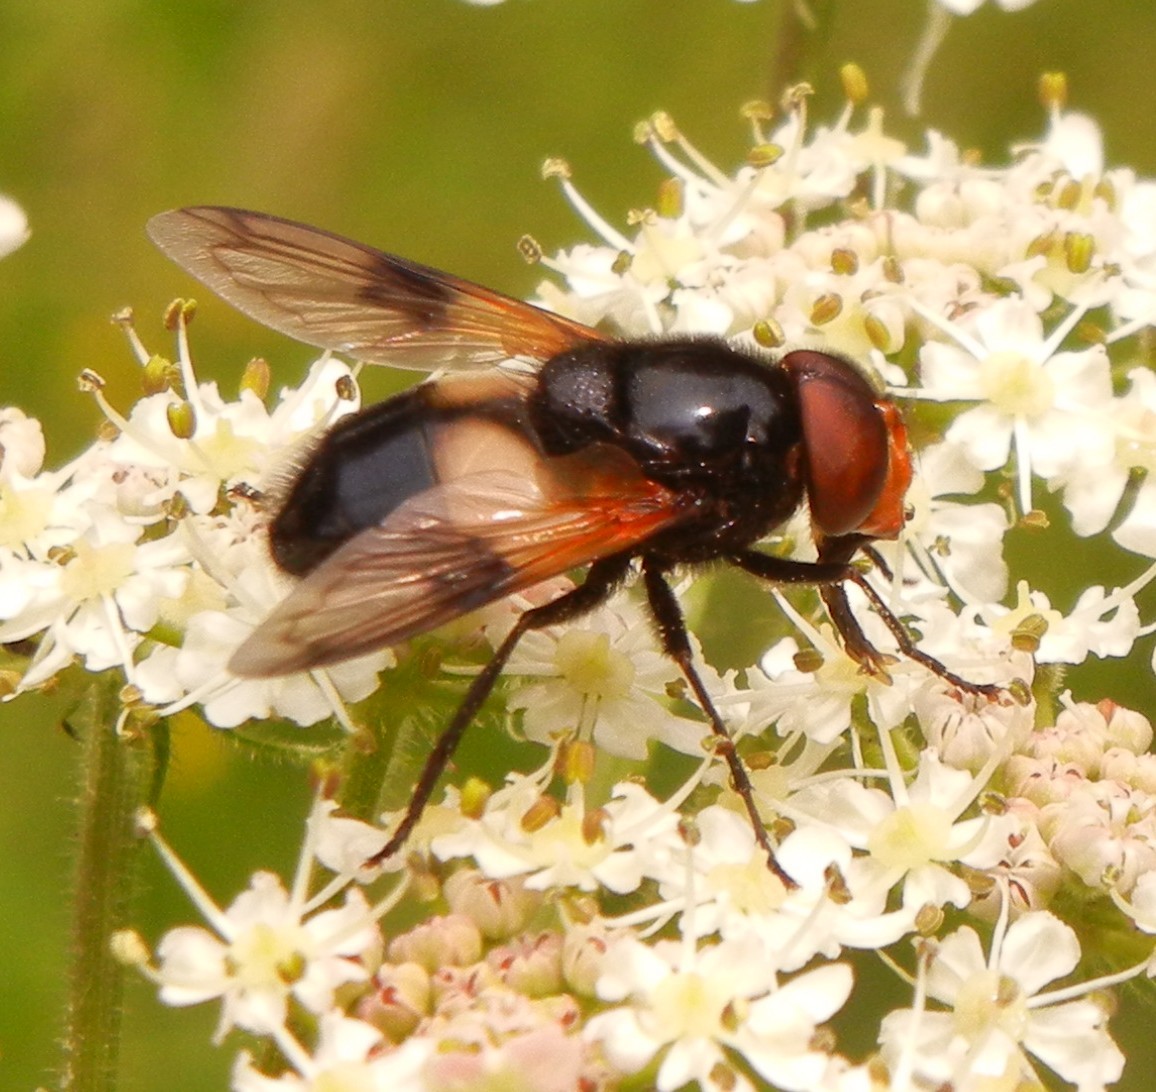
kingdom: Animalia
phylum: Arthropoda
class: Insecta
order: Diptera
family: Syrphidae
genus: Volucella
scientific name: Volucella pellucens
